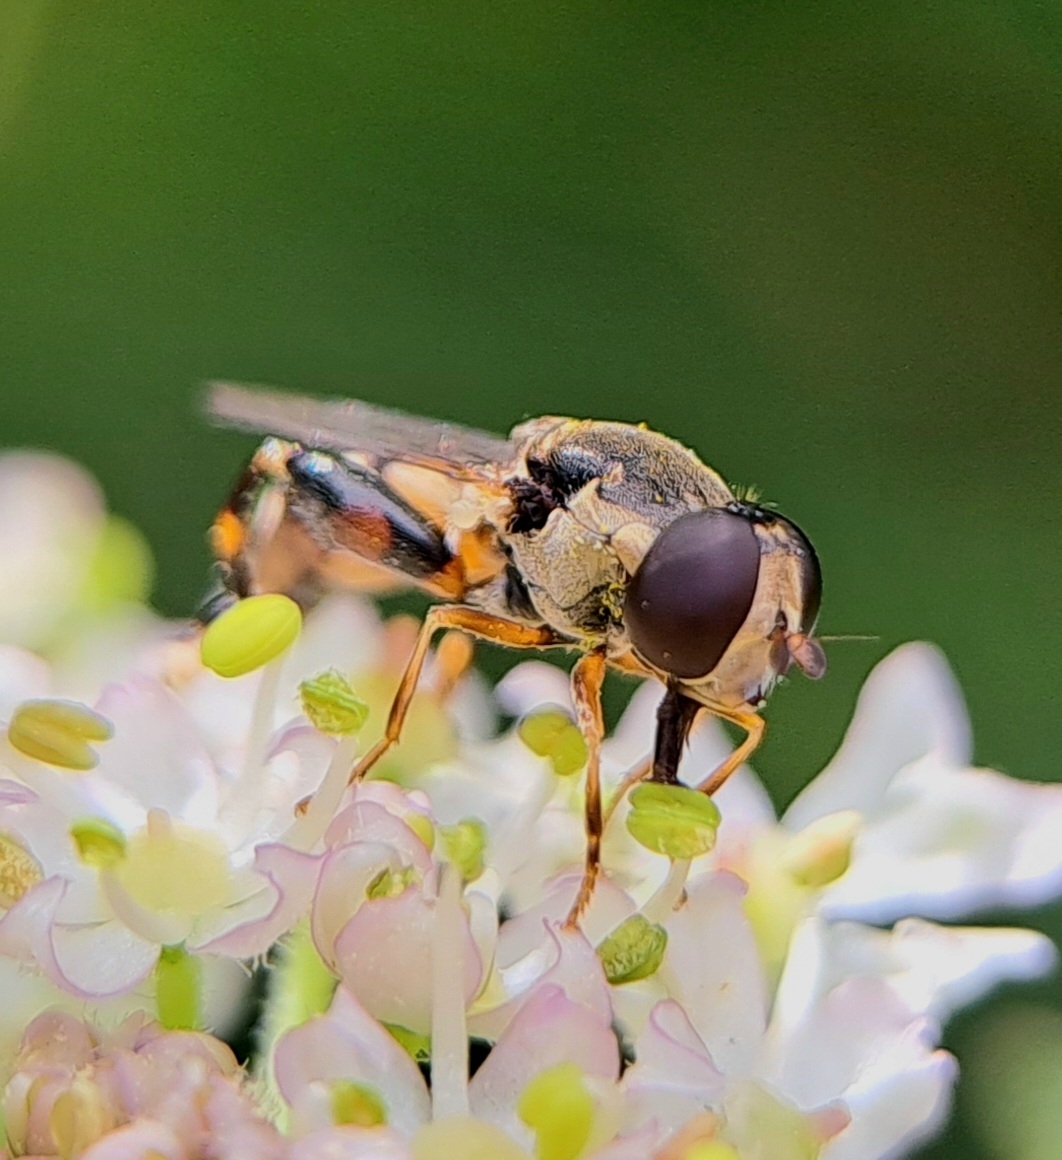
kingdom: Animalia
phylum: Arthropoda
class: Insecta
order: Diptera
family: Syrphidae
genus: Syritta
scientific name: Syritta pipiens
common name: Hover fly
